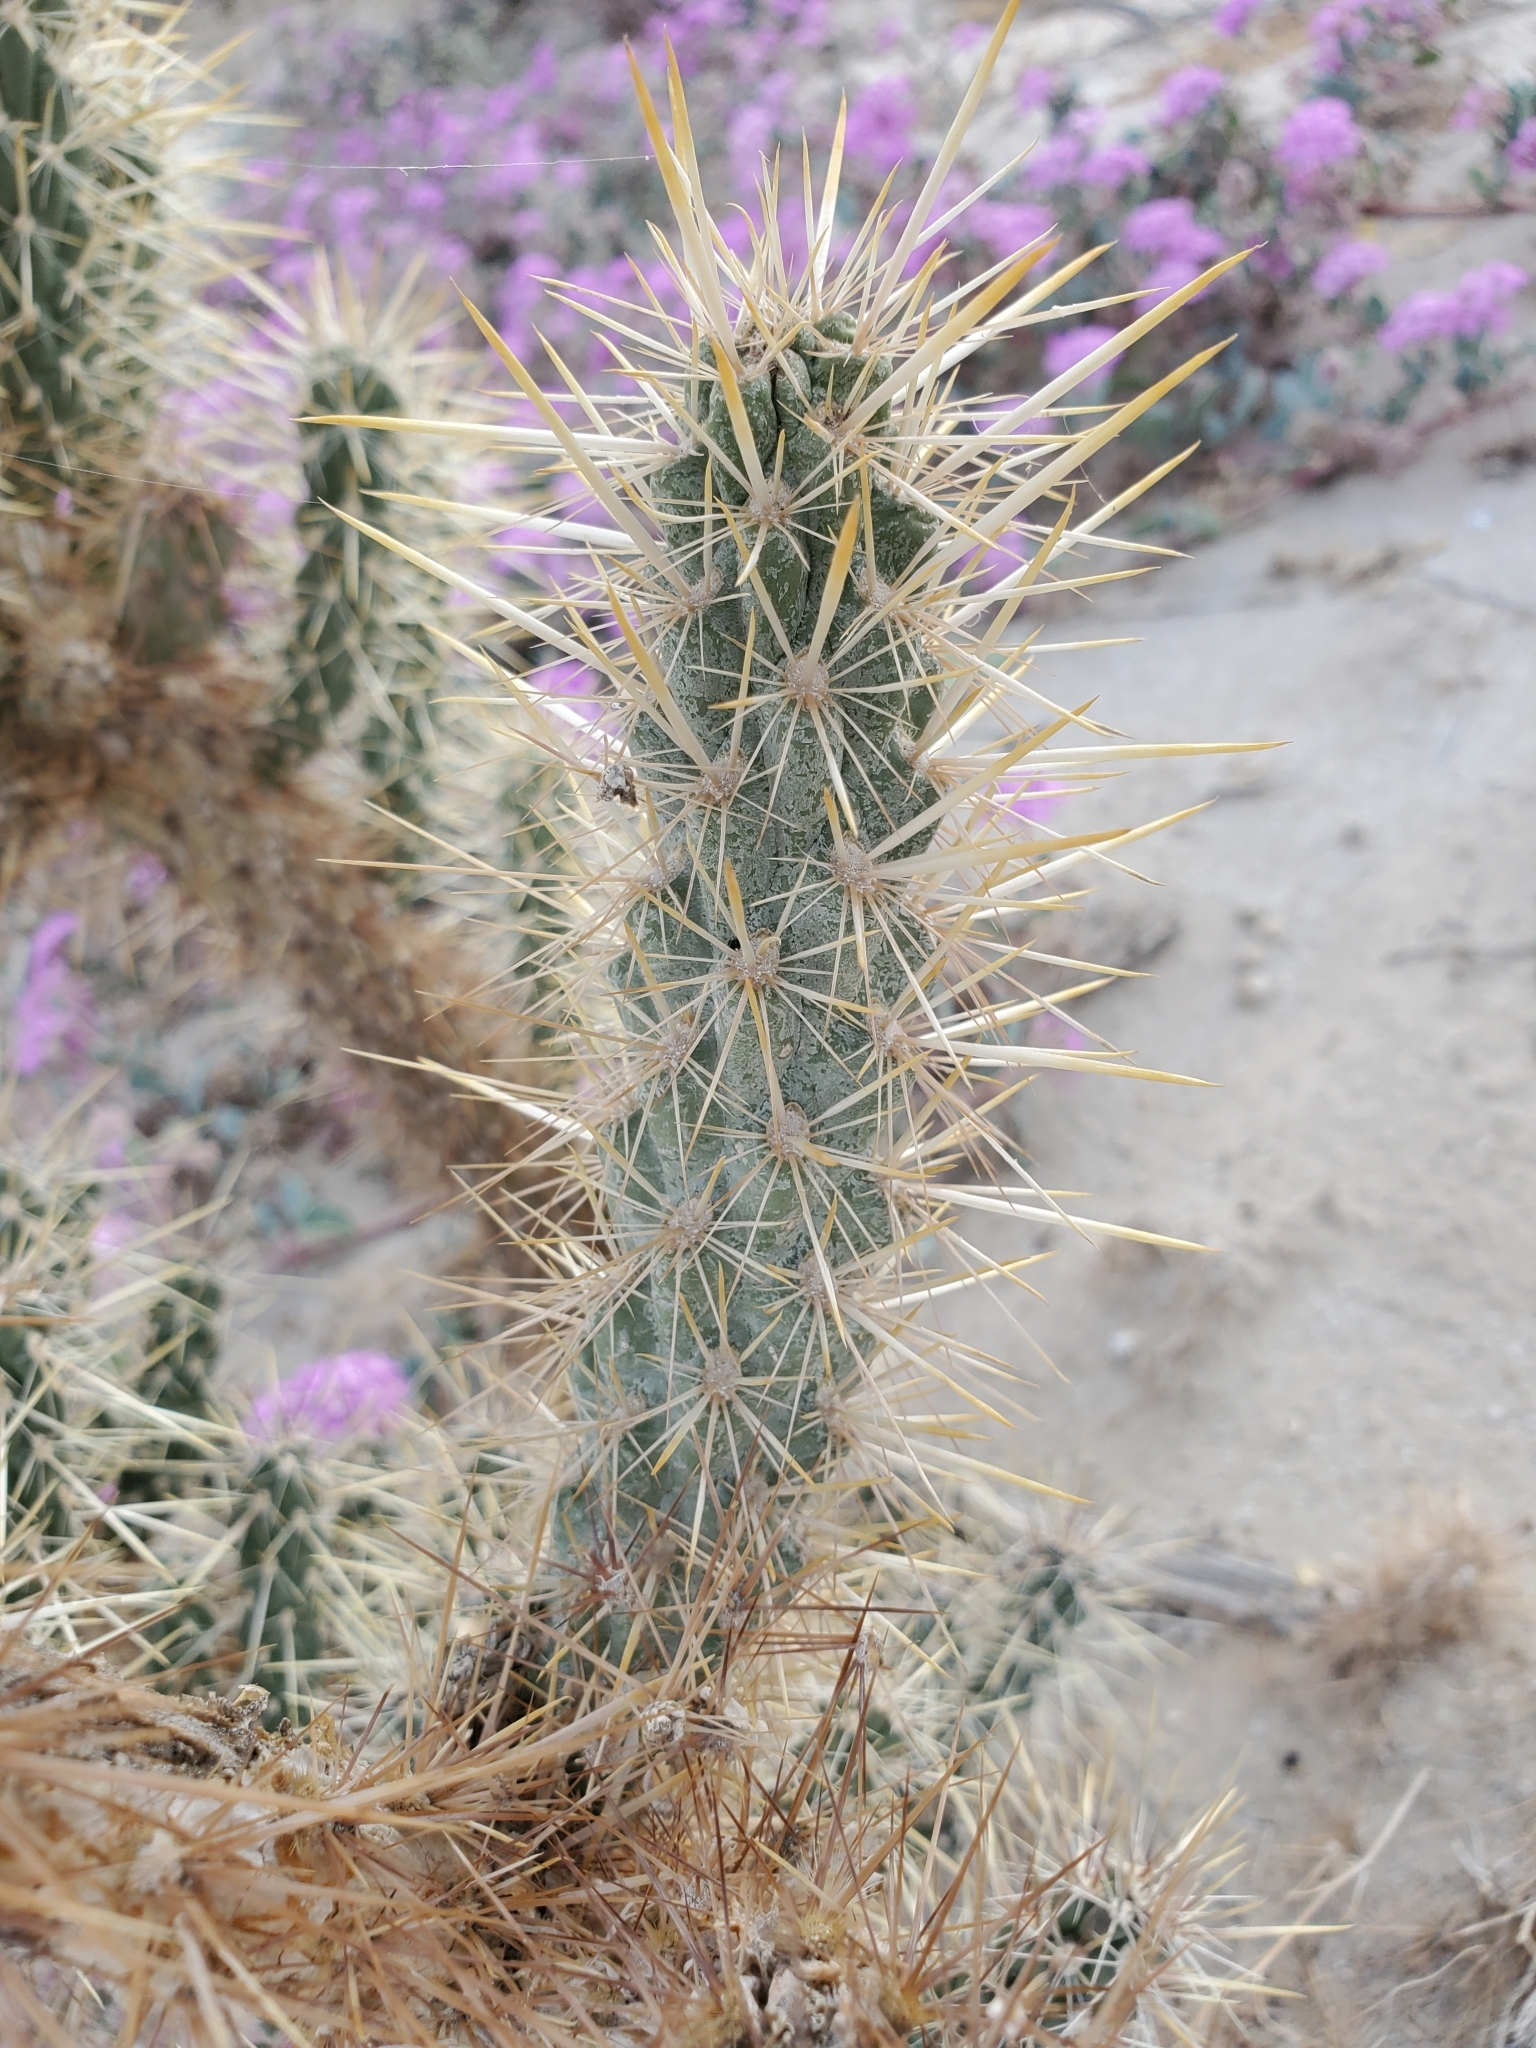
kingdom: Plantae
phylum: Tracheophyta
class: Magnoliopsida
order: Caryophyllales
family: Cactaceae
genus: Cylindropuntia
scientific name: Cylindropuntia echinocarpa
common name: Ground cholla
